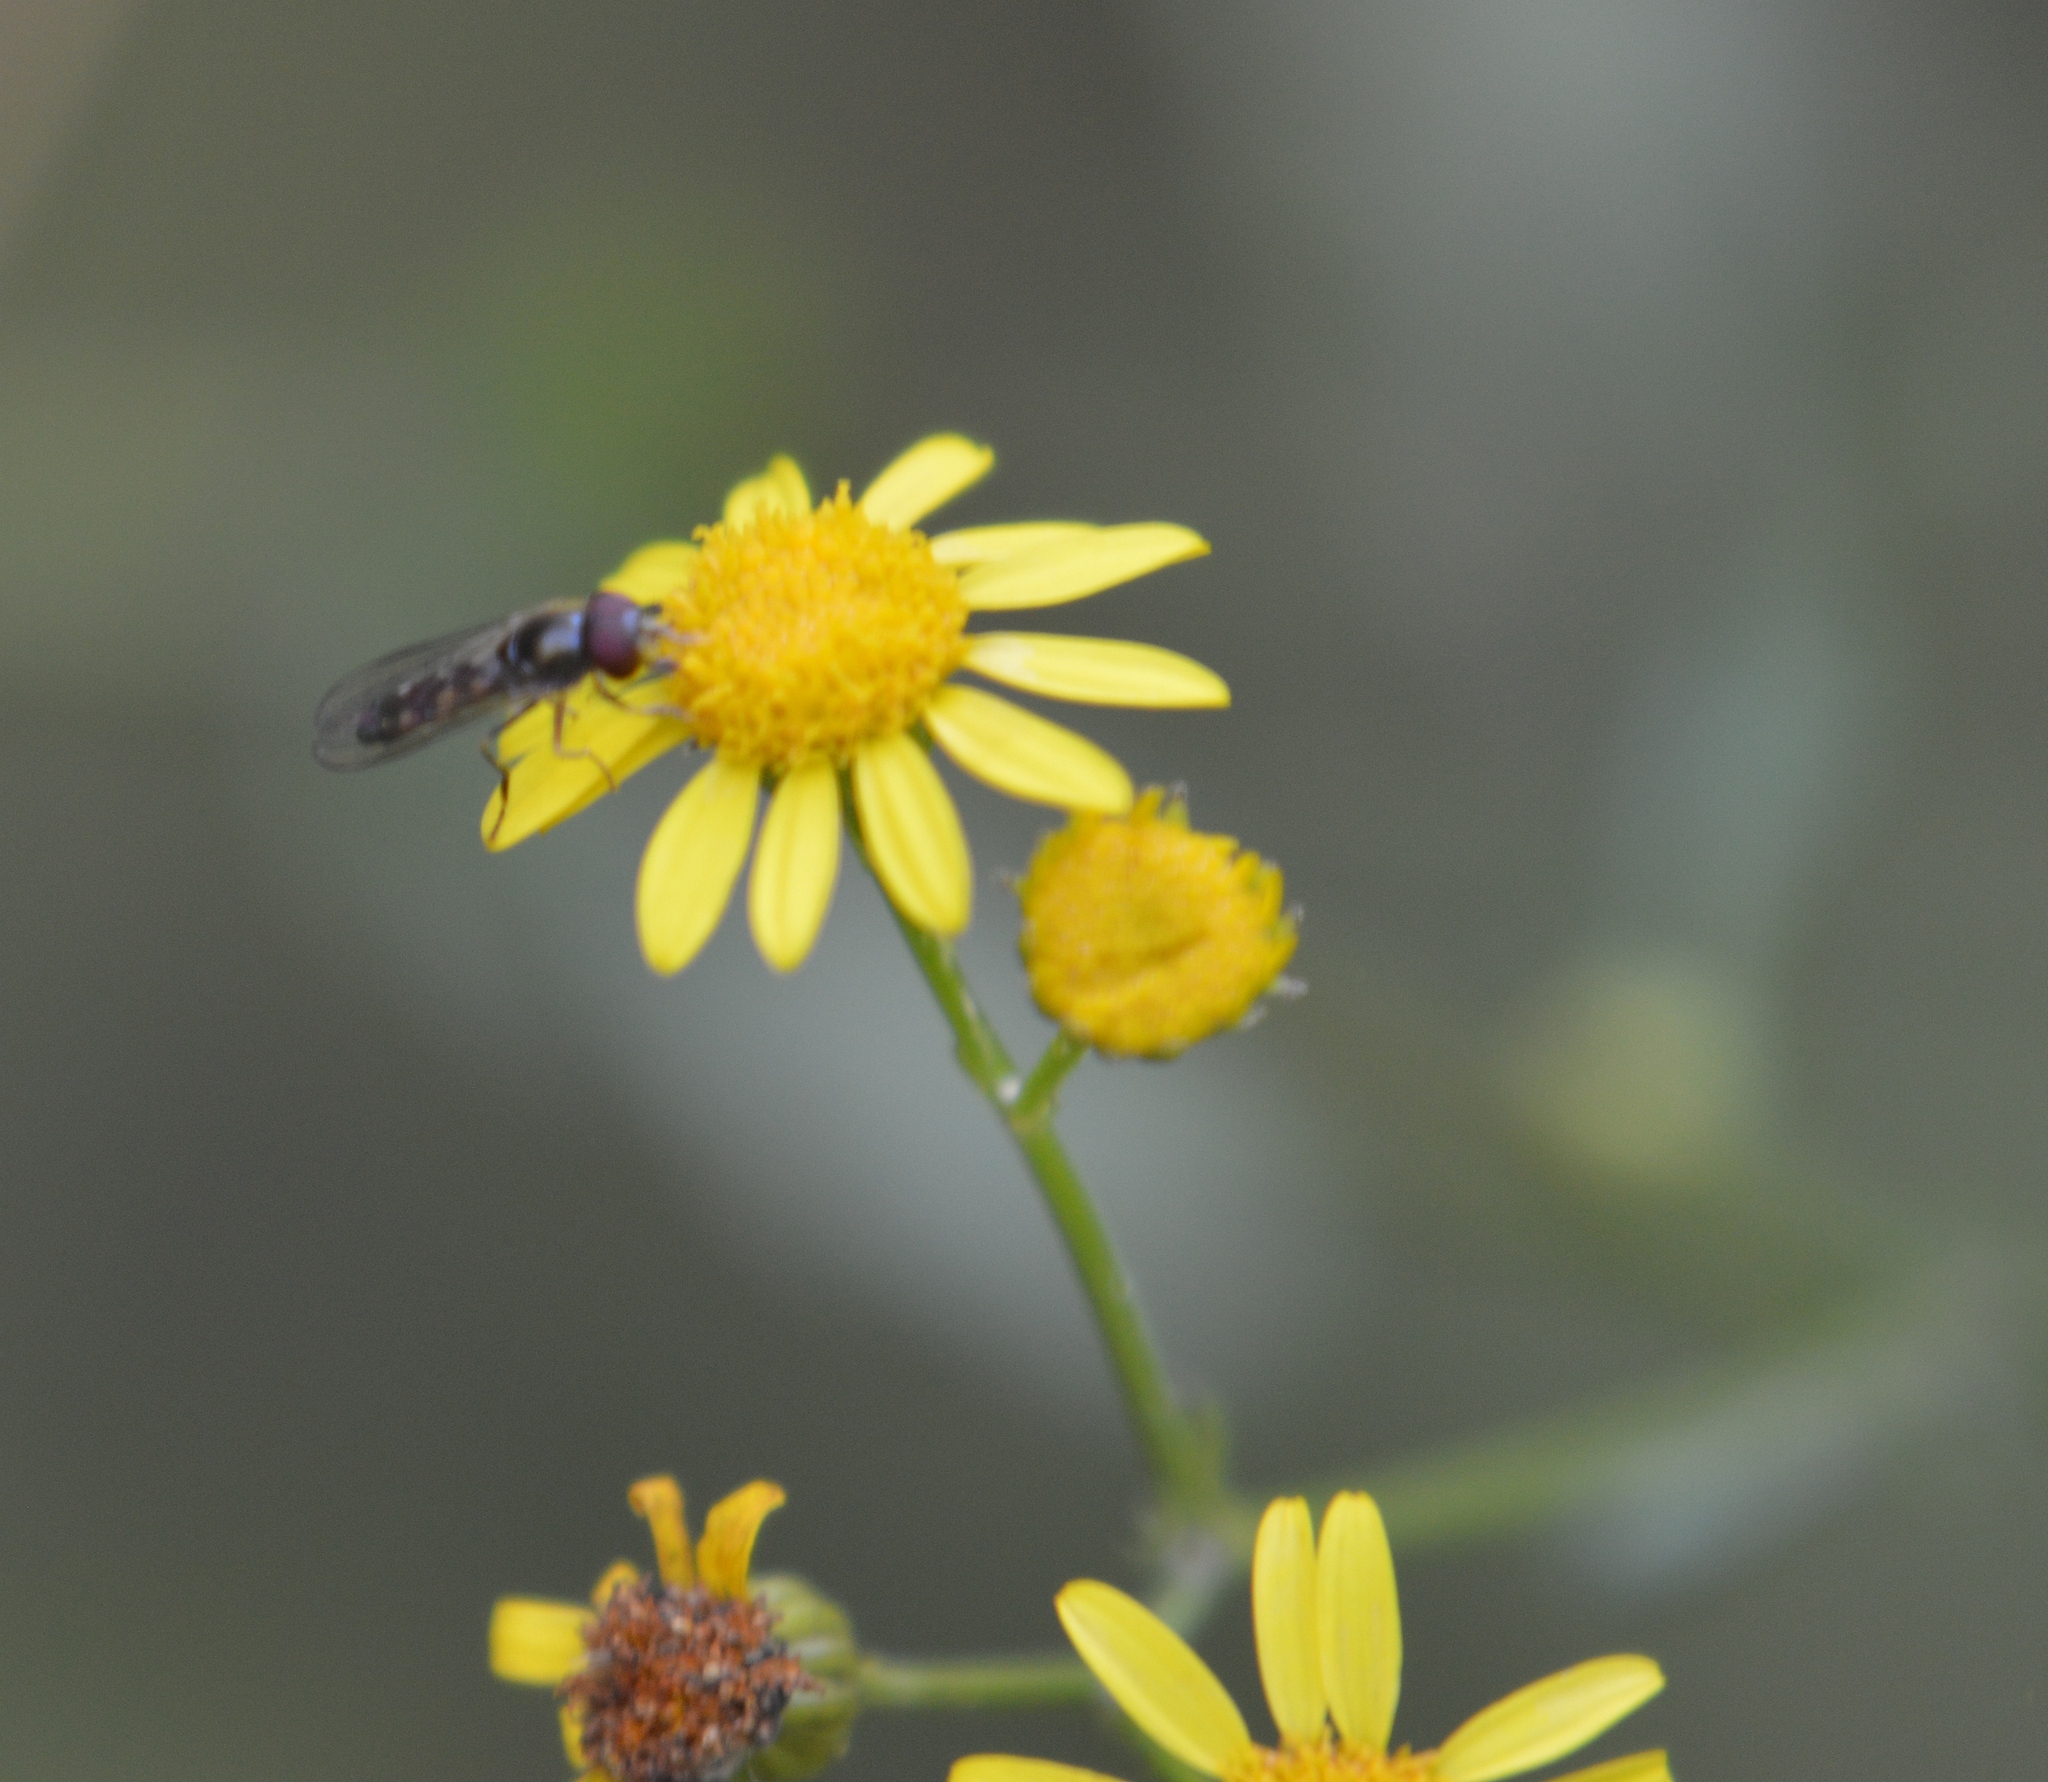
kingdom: Animalia
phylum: Arthropoda
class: Insecta
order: Diptera
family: Syrphidae
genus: Platycheirus
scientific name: Platycheirus
